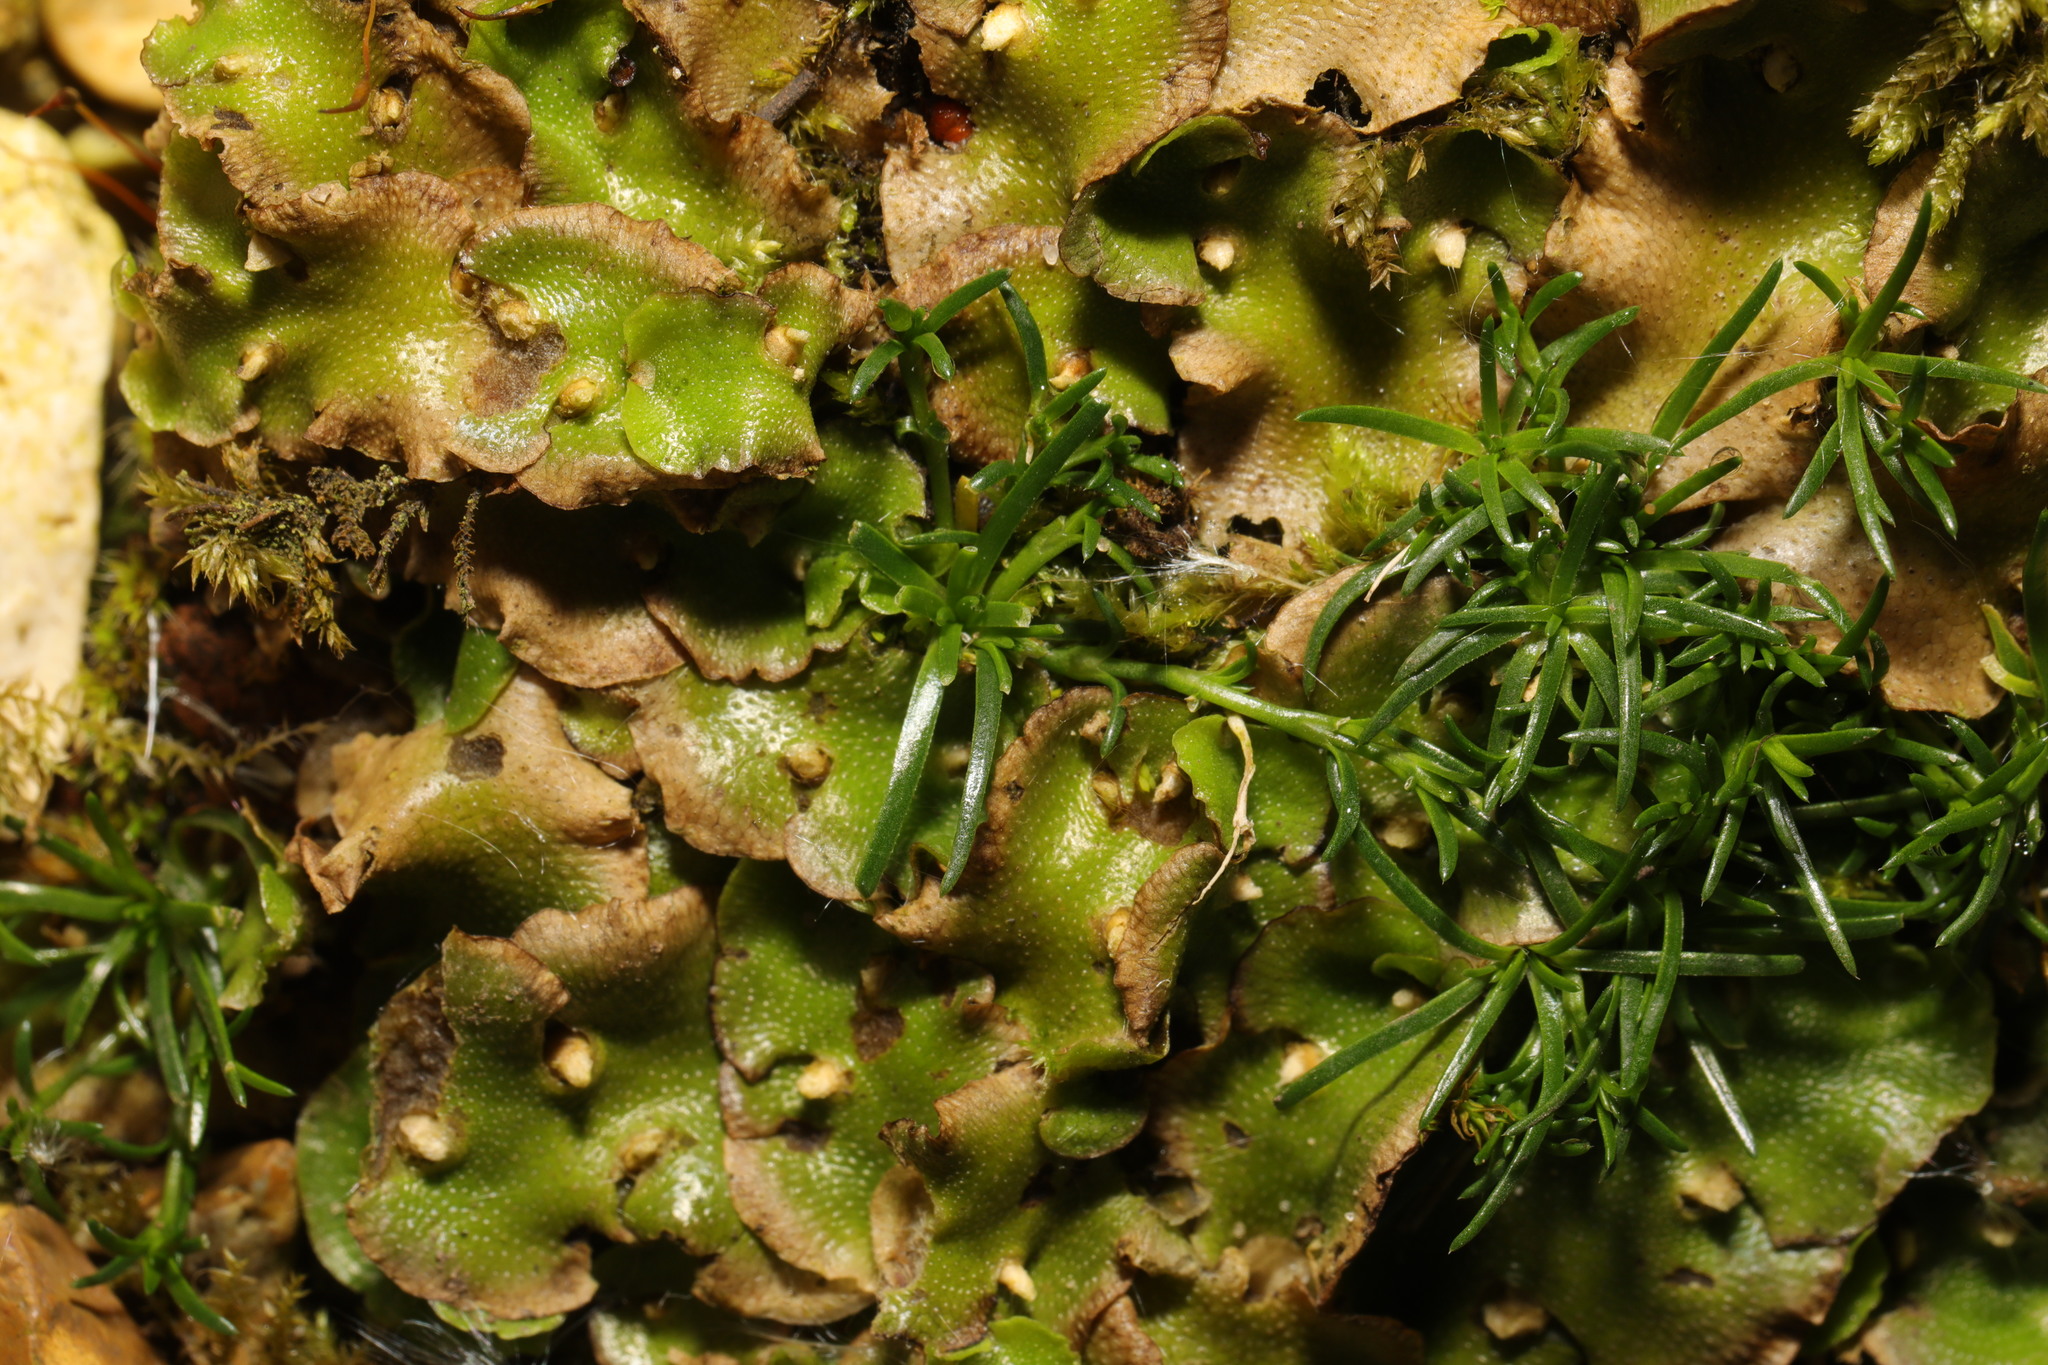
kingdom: Plantae
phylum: Marchantiophyta
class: Marchantiopsida
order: Lunulariales
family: Lunulariaceae
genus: Lunularia
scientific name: Lunularia cruciata
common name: Crescent-cup liverwort
